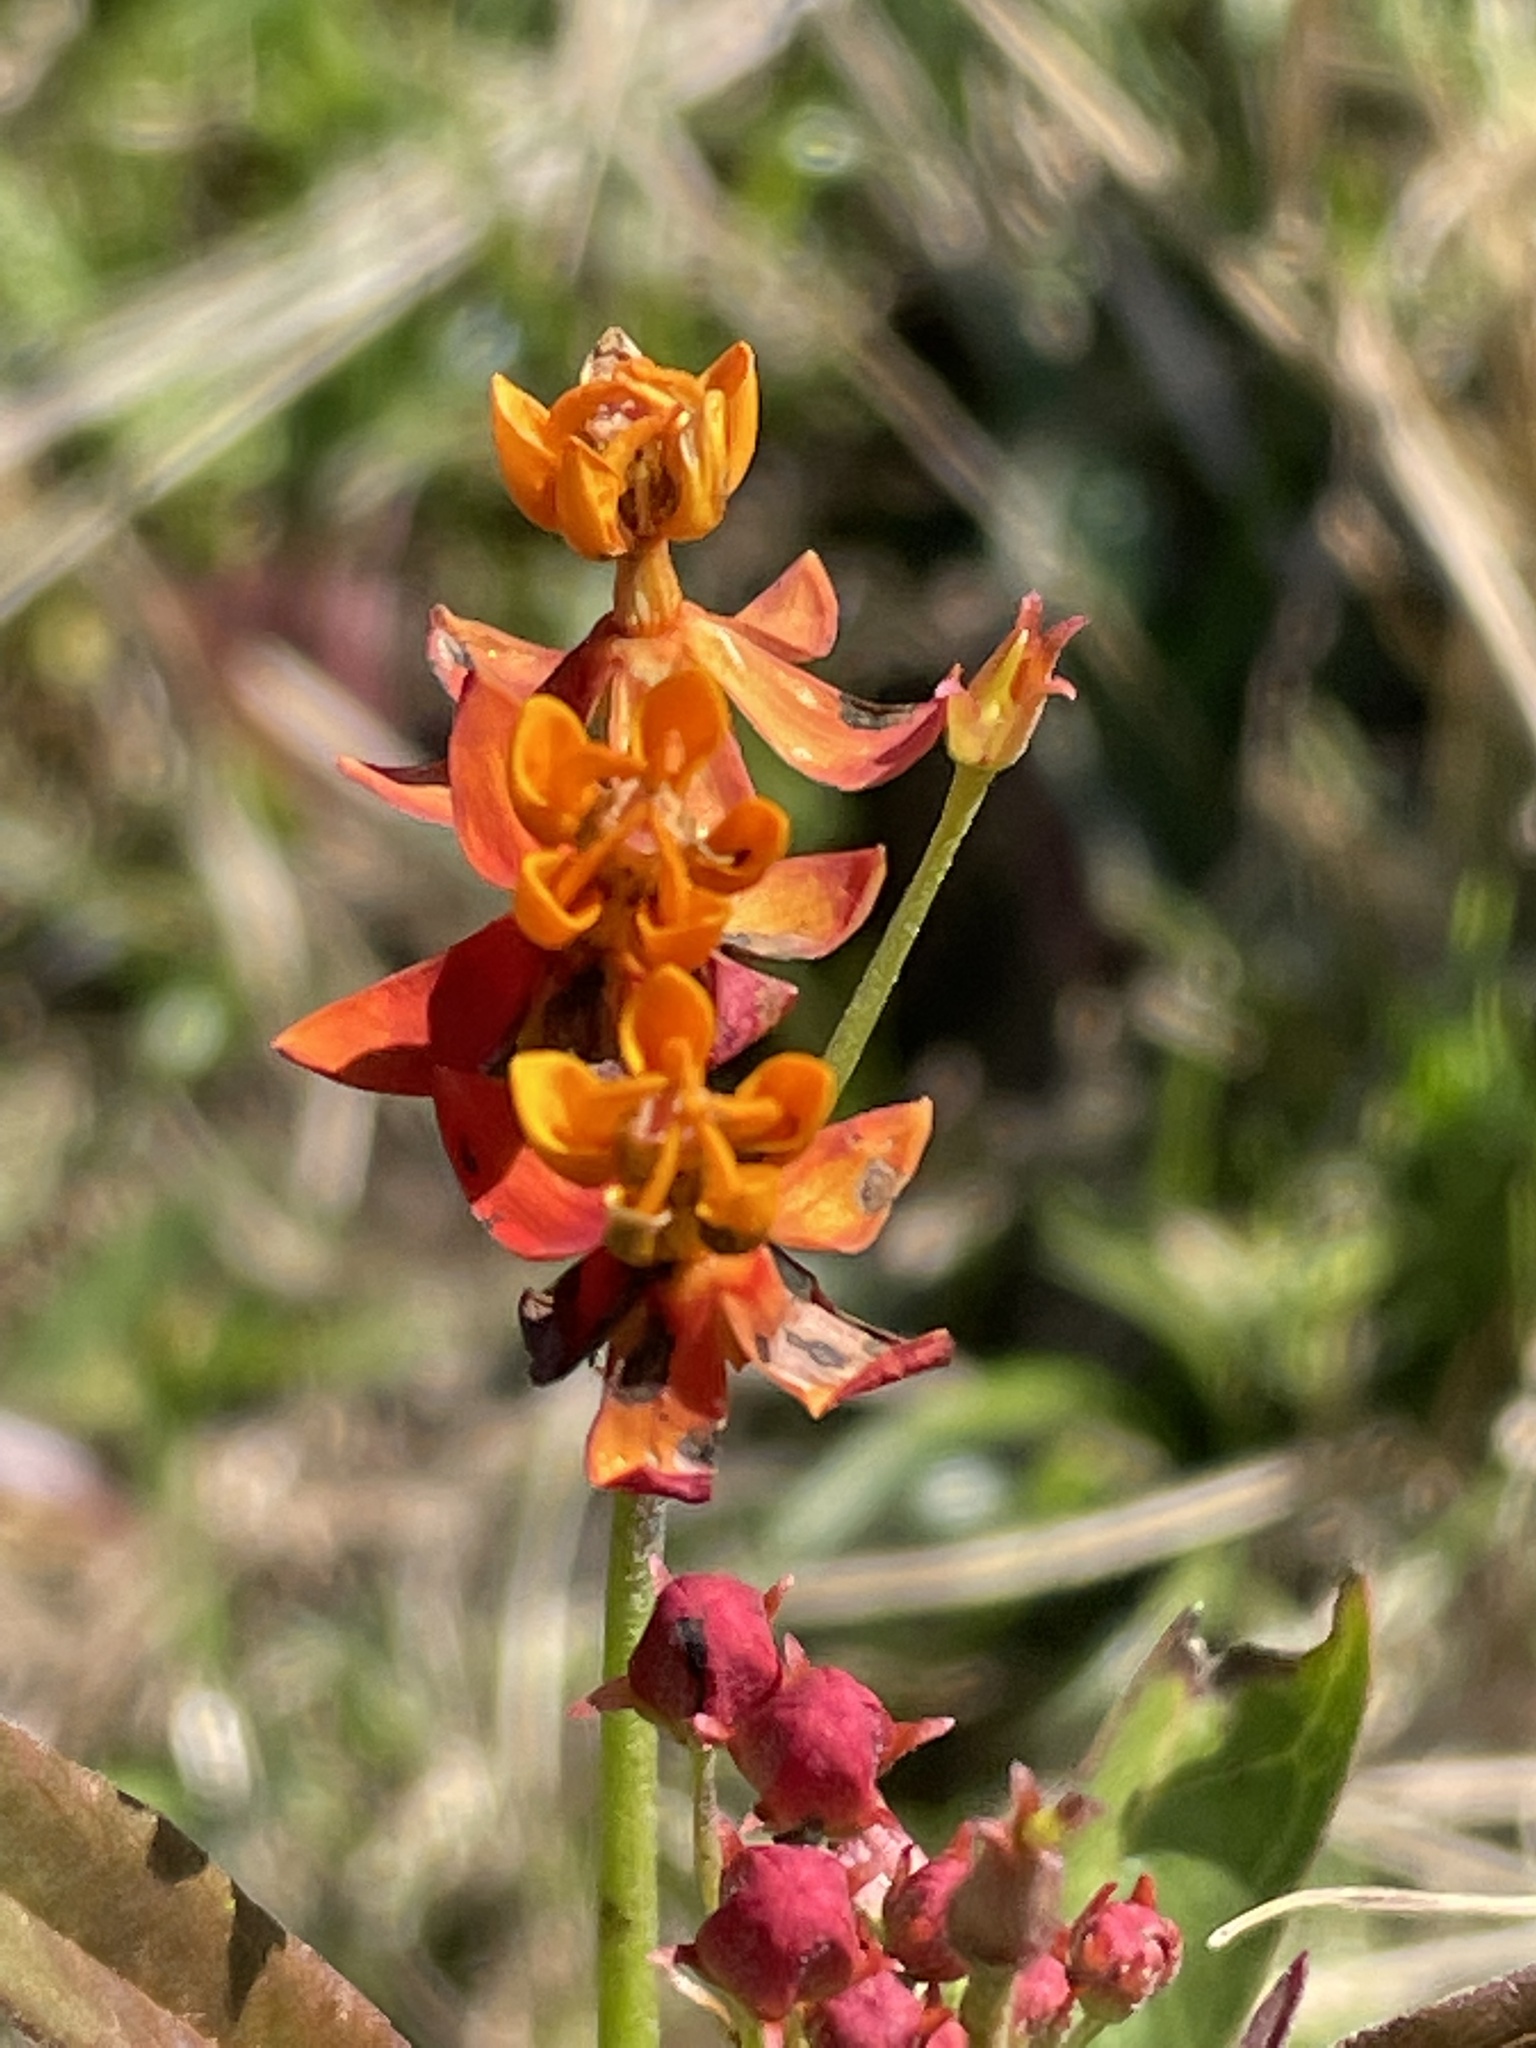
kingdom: Plantae
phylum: Tracheophyta
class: Magnoliopsida
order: Gentianales
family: Apocynaceae
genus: Asclepias
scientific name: Asclepias curassavica
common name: Bloodflower
